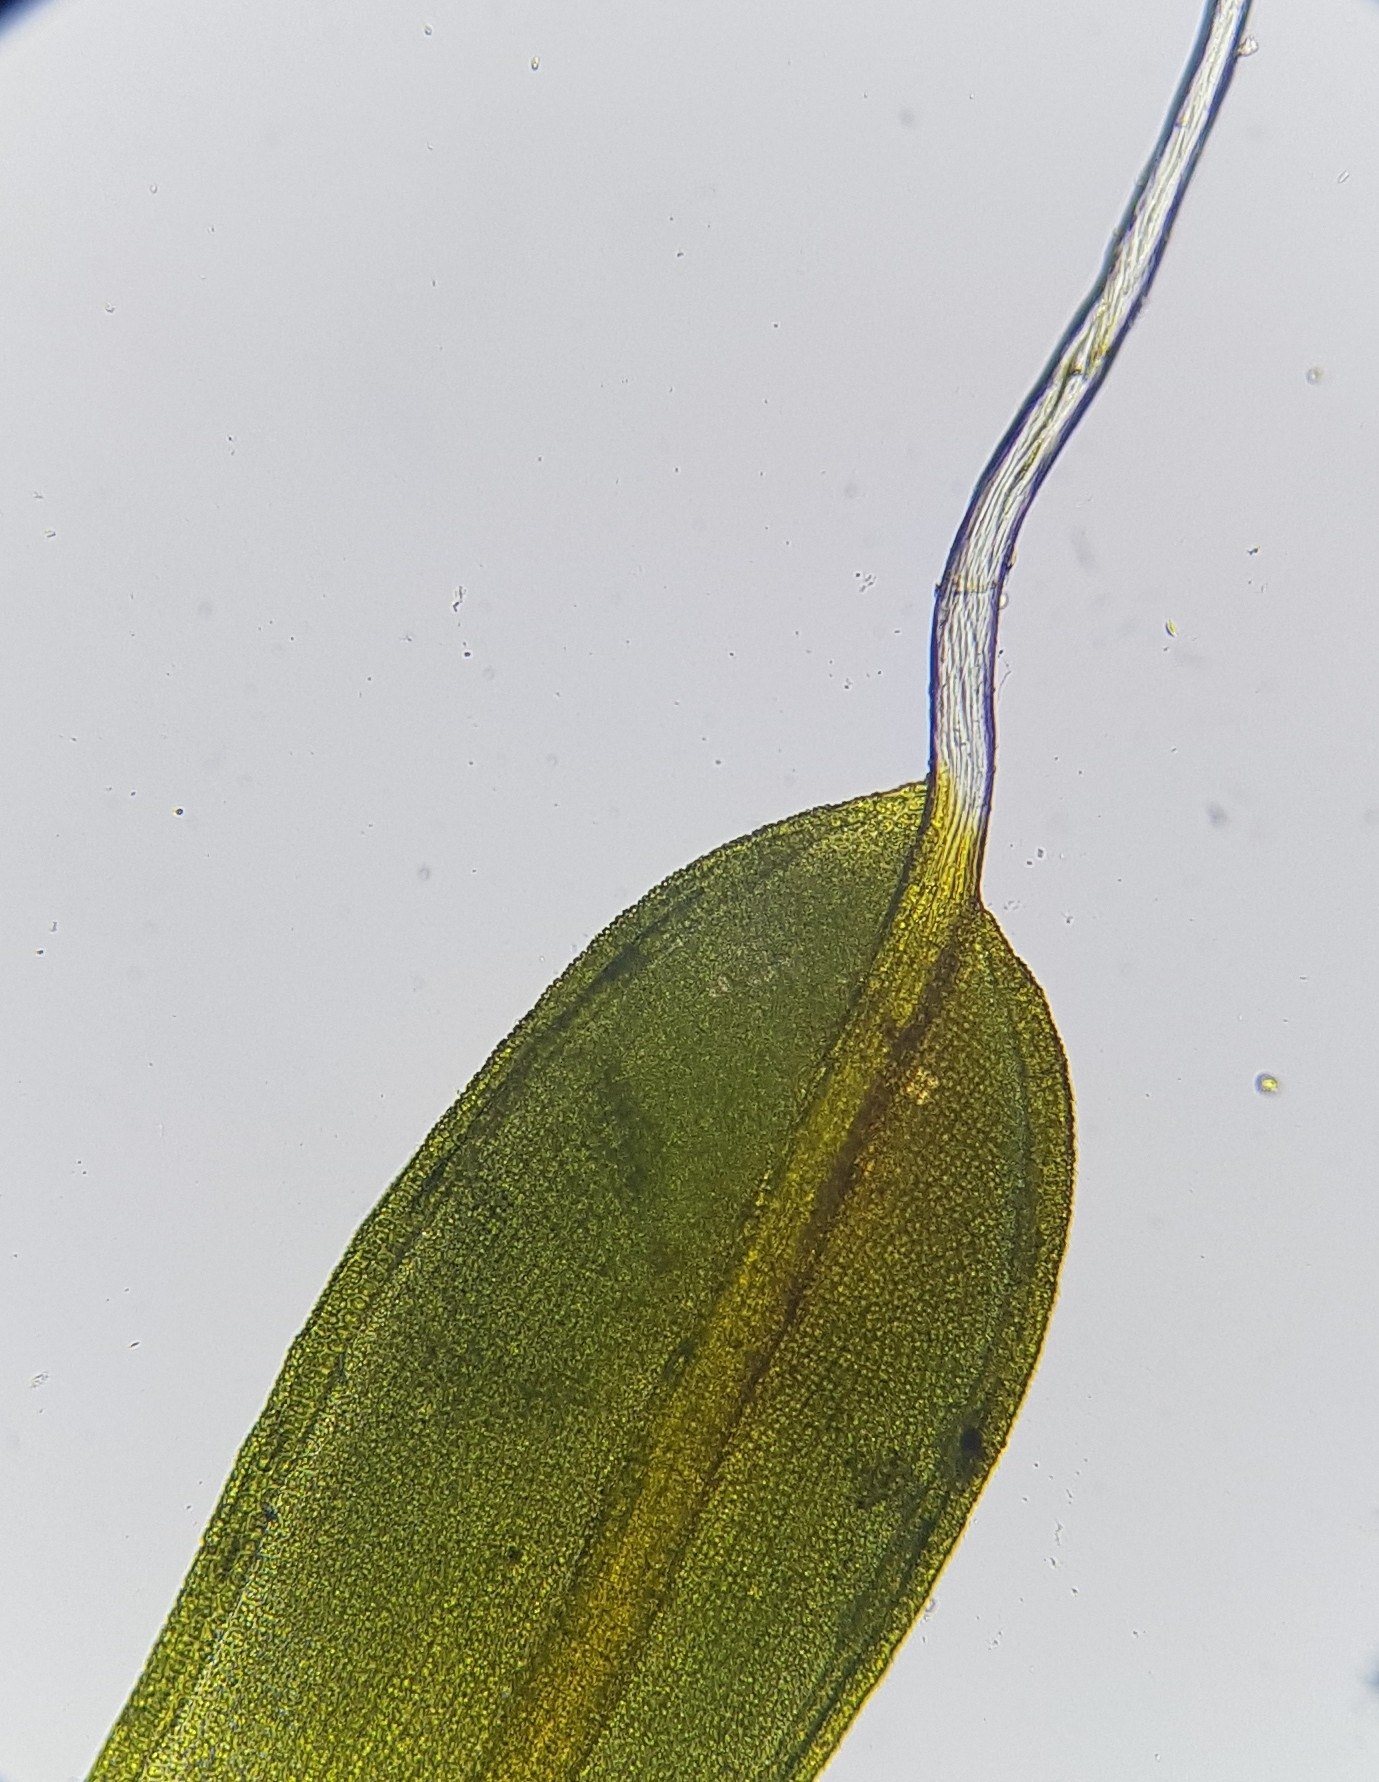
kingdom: Plantae
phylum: Bryophyta
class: Bryopsida
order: Pottiales
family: Pottiaceae
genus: Tortula
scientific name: Tortula muralis
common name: Wall screw-moss
